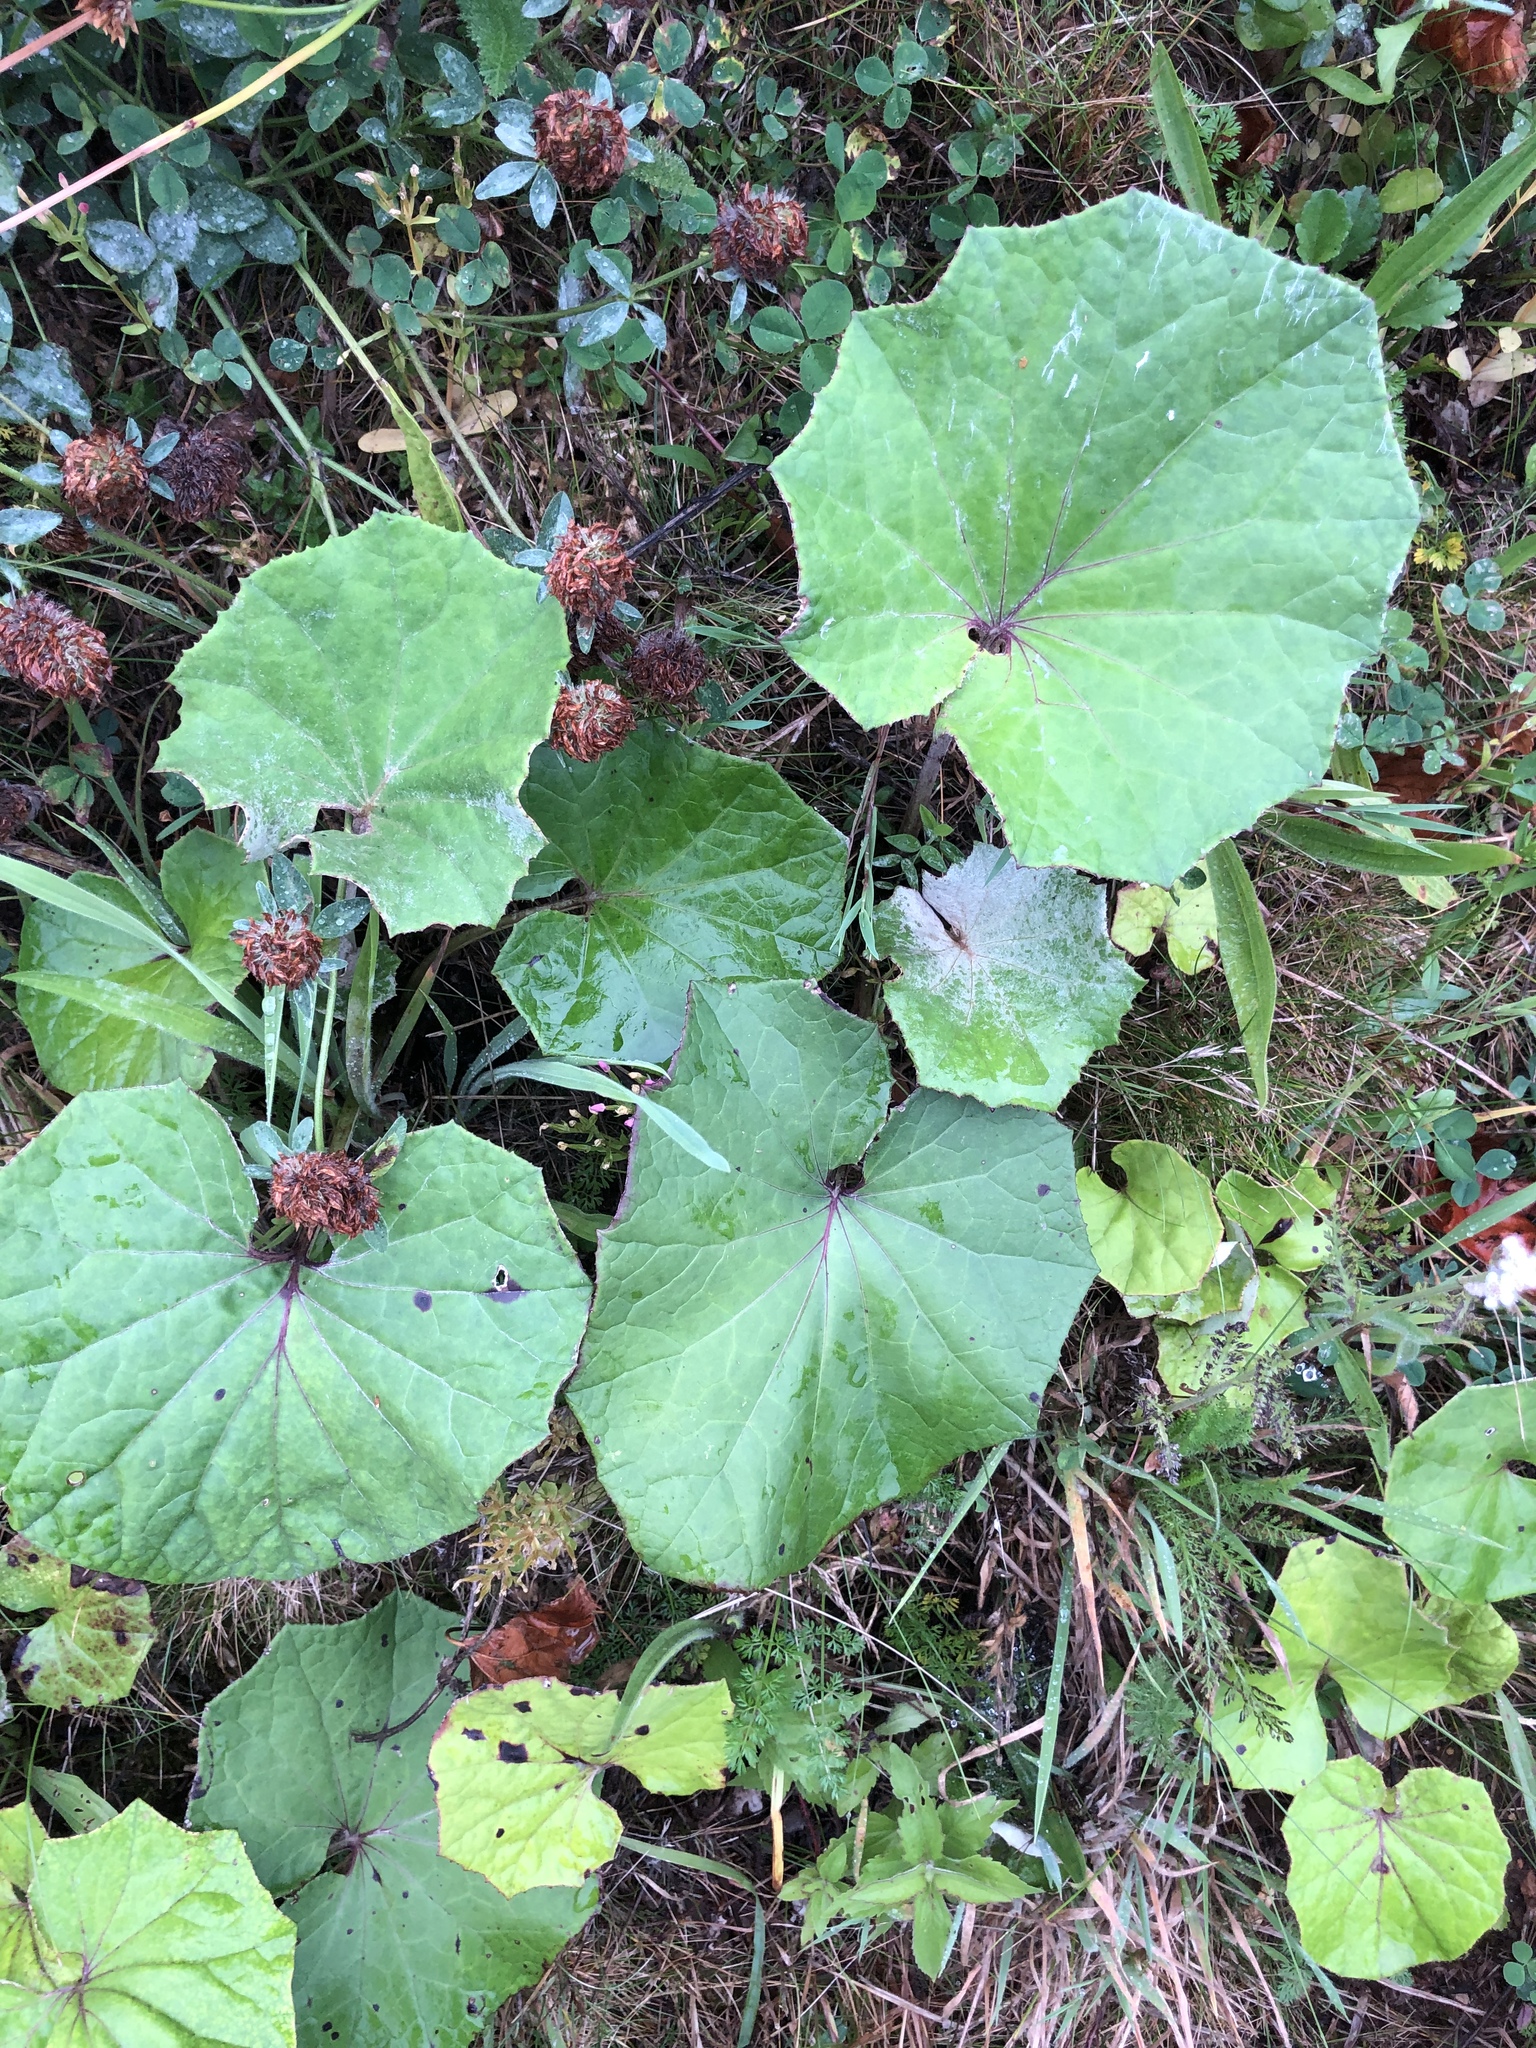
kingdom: Plantae
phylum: Tracheophyta
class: Magnoliopsida
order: Asterales
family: Asteraceae
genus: Tussilago
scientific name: Tussilago farfara
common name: Coltsfoot
